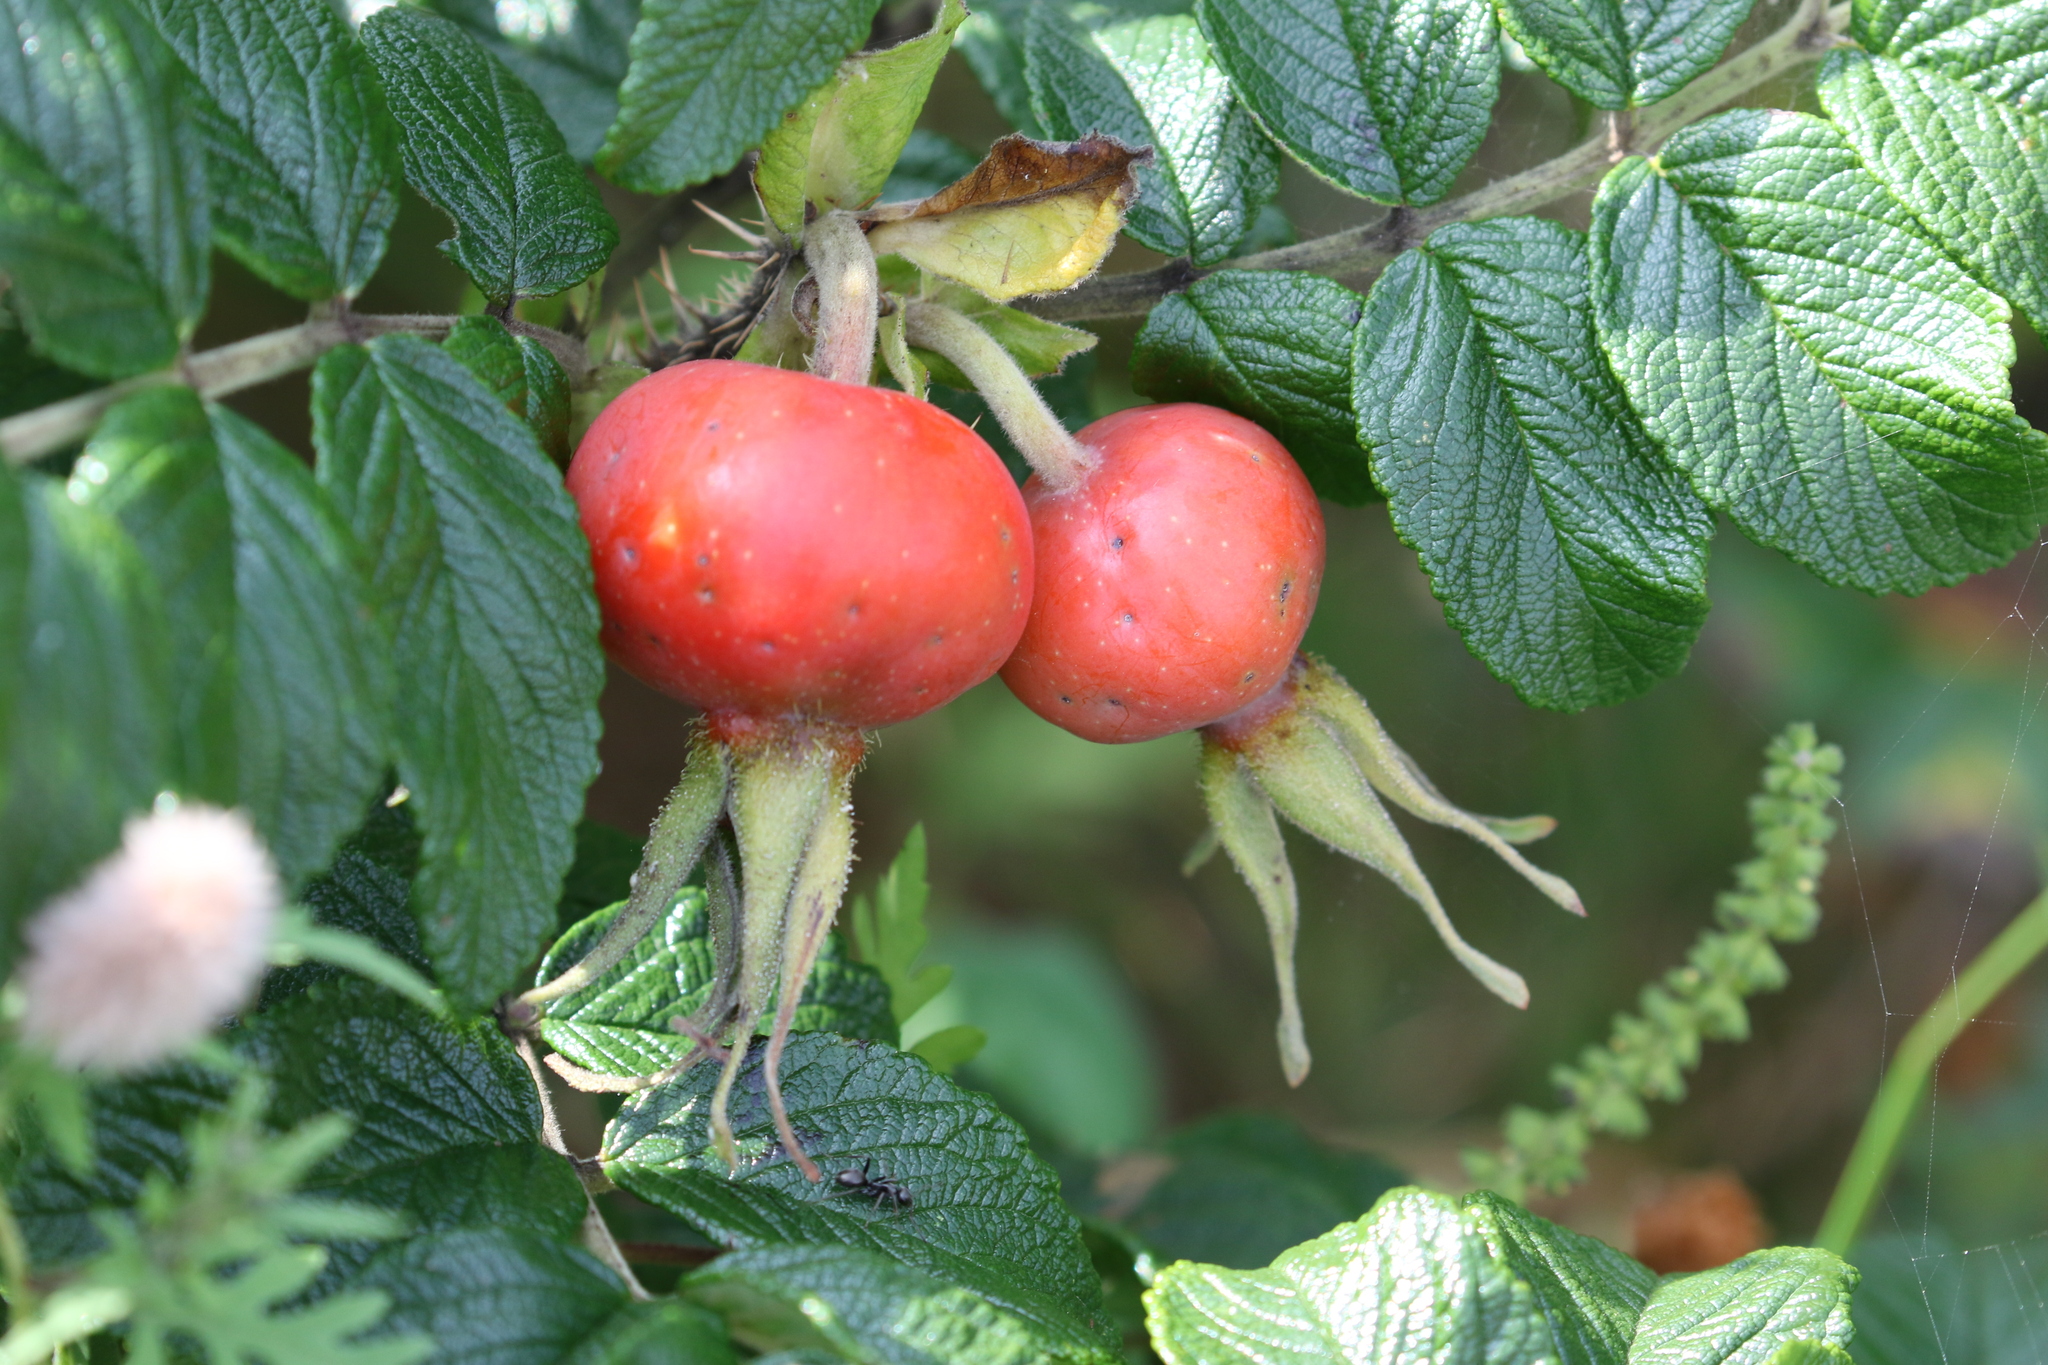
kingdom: Plantae
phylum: Tracheophyta
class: Magnoliopsida
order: Rosales
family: Rosaceae
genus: Rosa
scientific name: Rosa rugosa
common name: Japanese rose
